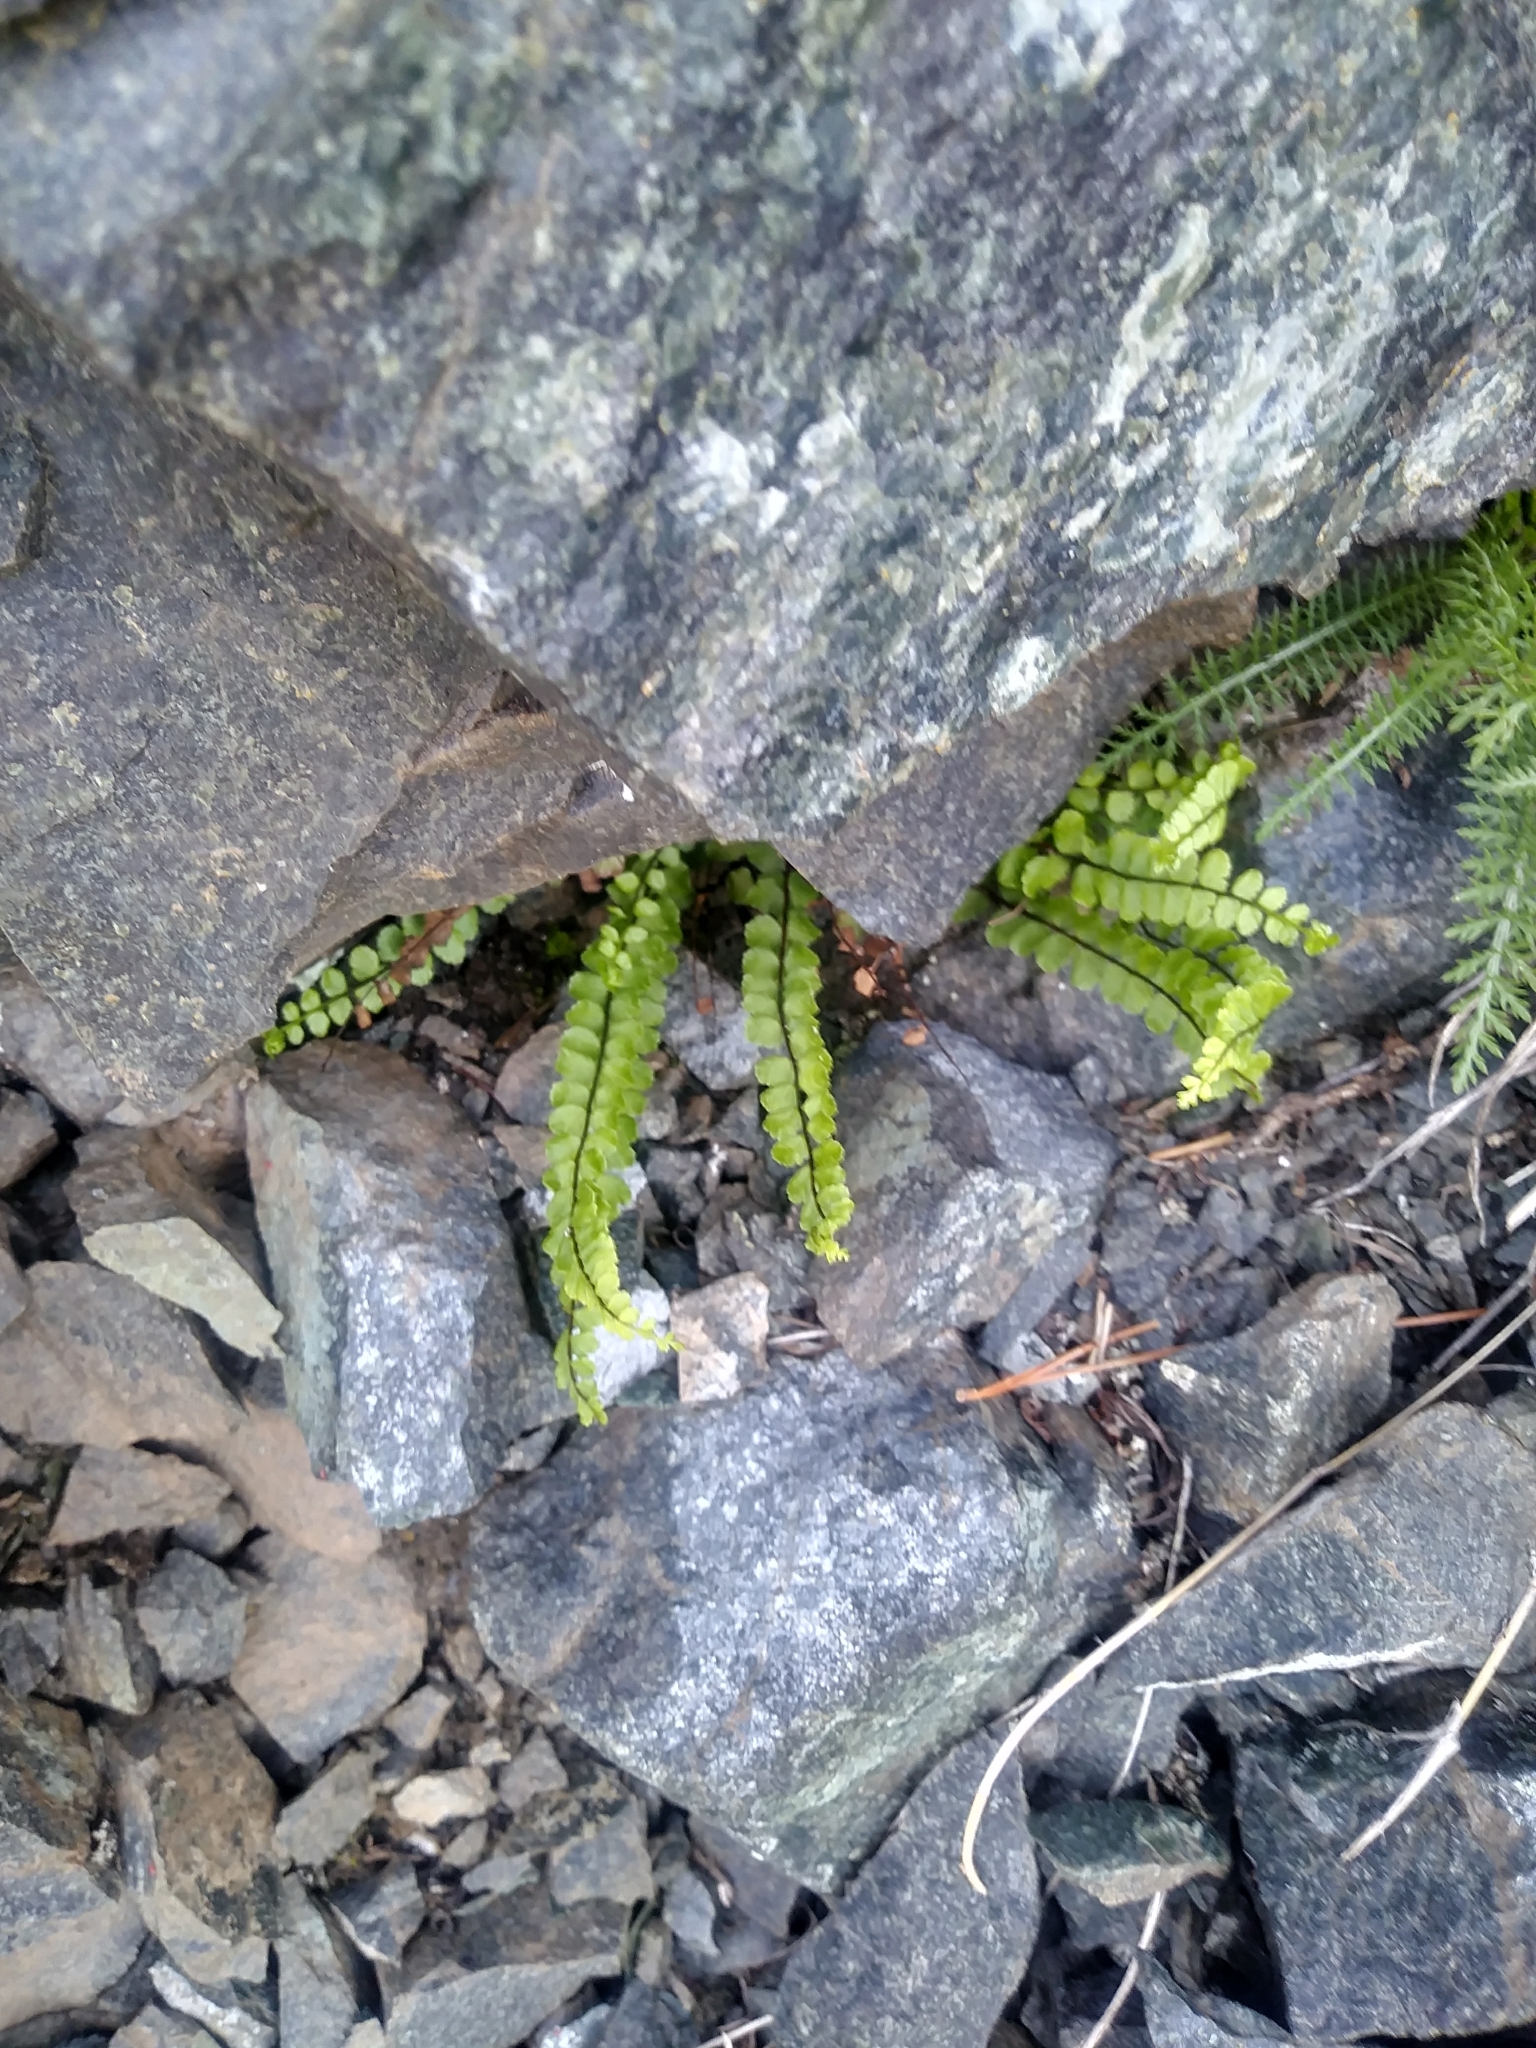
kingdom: Plantae
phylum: Tracheophyta
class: Polypodiopsida
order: Polypodiales
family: Aspleniaceae
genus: Asplenium
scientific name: Asplenium trichomanes
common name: Maidenhair spleenwort
